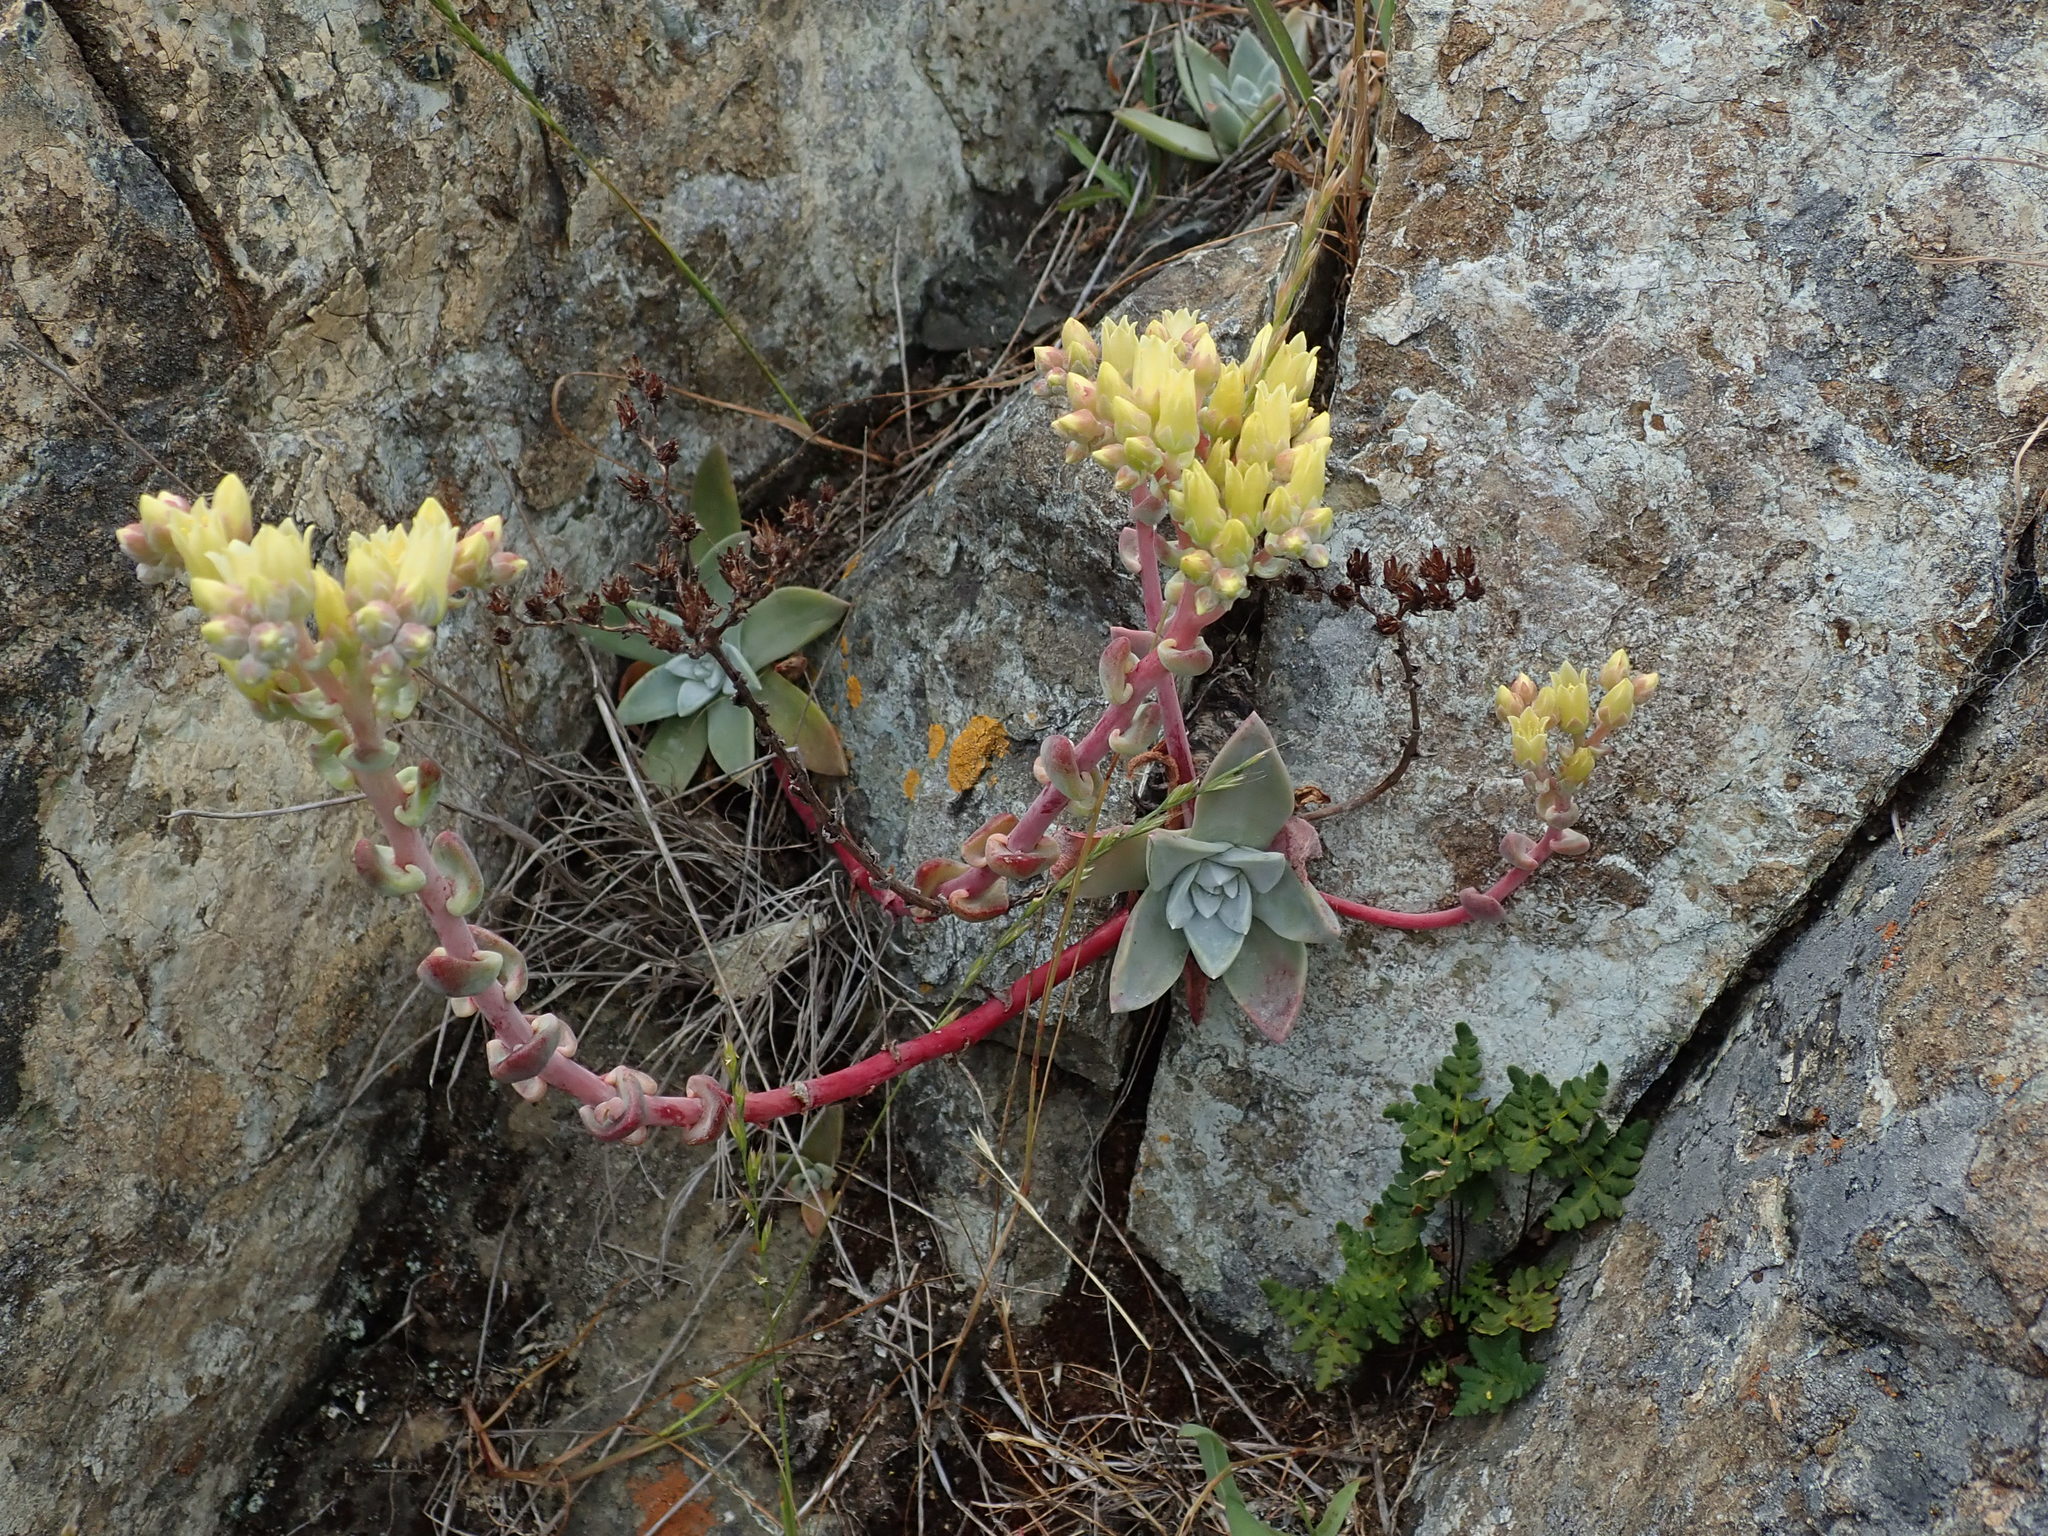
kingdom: Plantae
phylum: Tracheophyta
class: Magnoliopsida
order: Saxifragales
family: Crassulaceae
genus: Dudleya
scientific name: Dudleya farinosa
